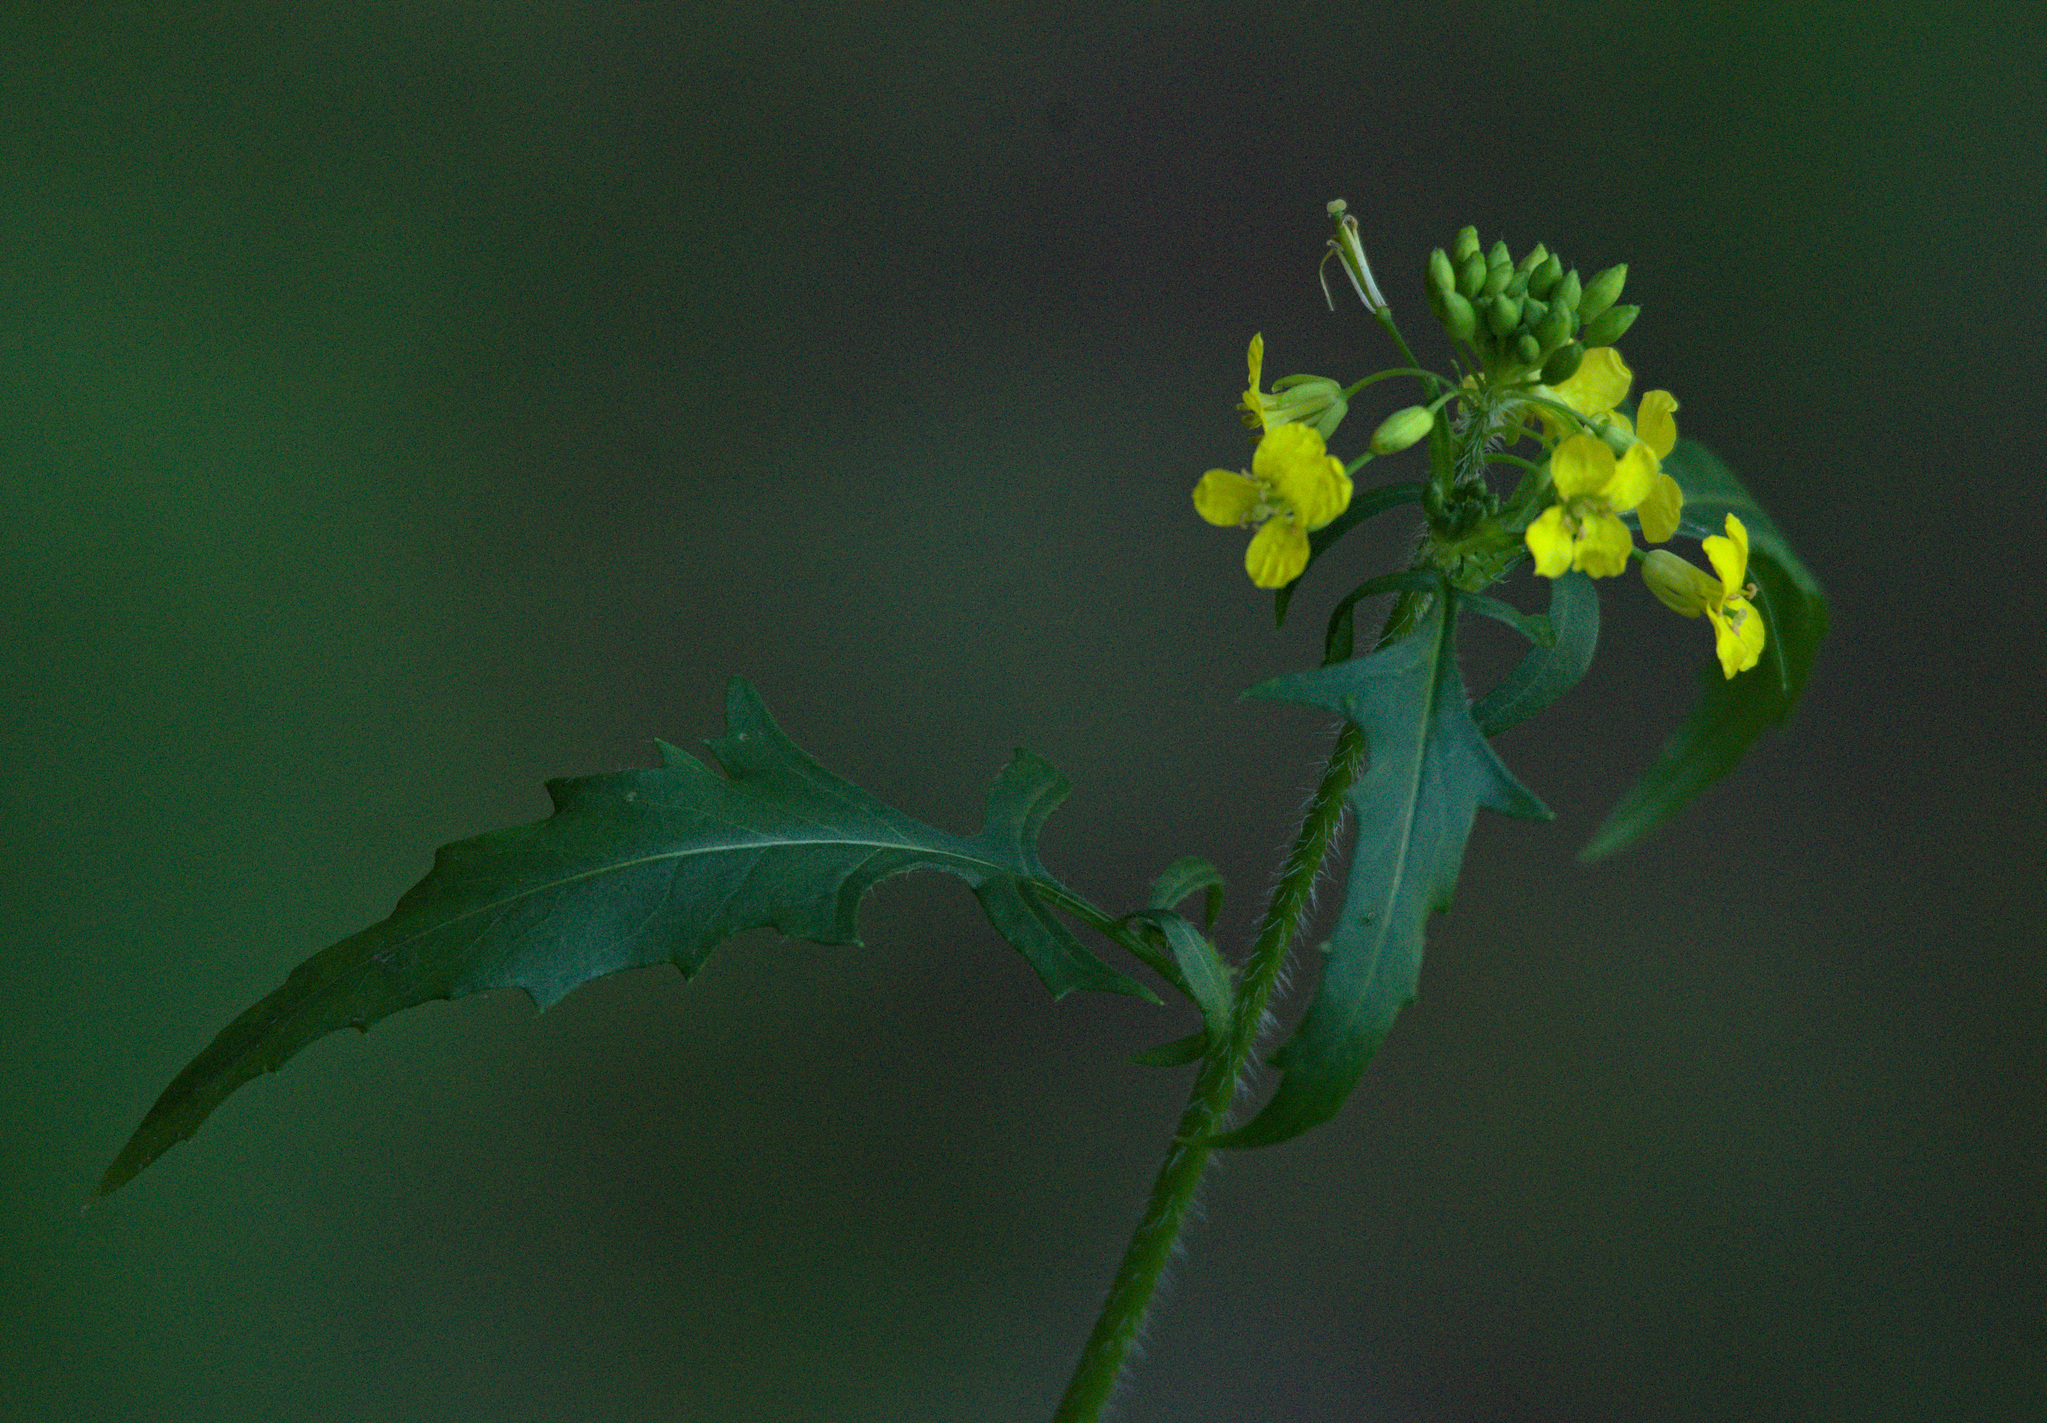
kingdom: Plantae
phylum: Tracheophyta
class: Magnoliopsida
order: Brassicales
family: Brassicaceae
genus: Sisymbrium
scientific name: Sisymbrium loeselii
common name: False london-rocket
